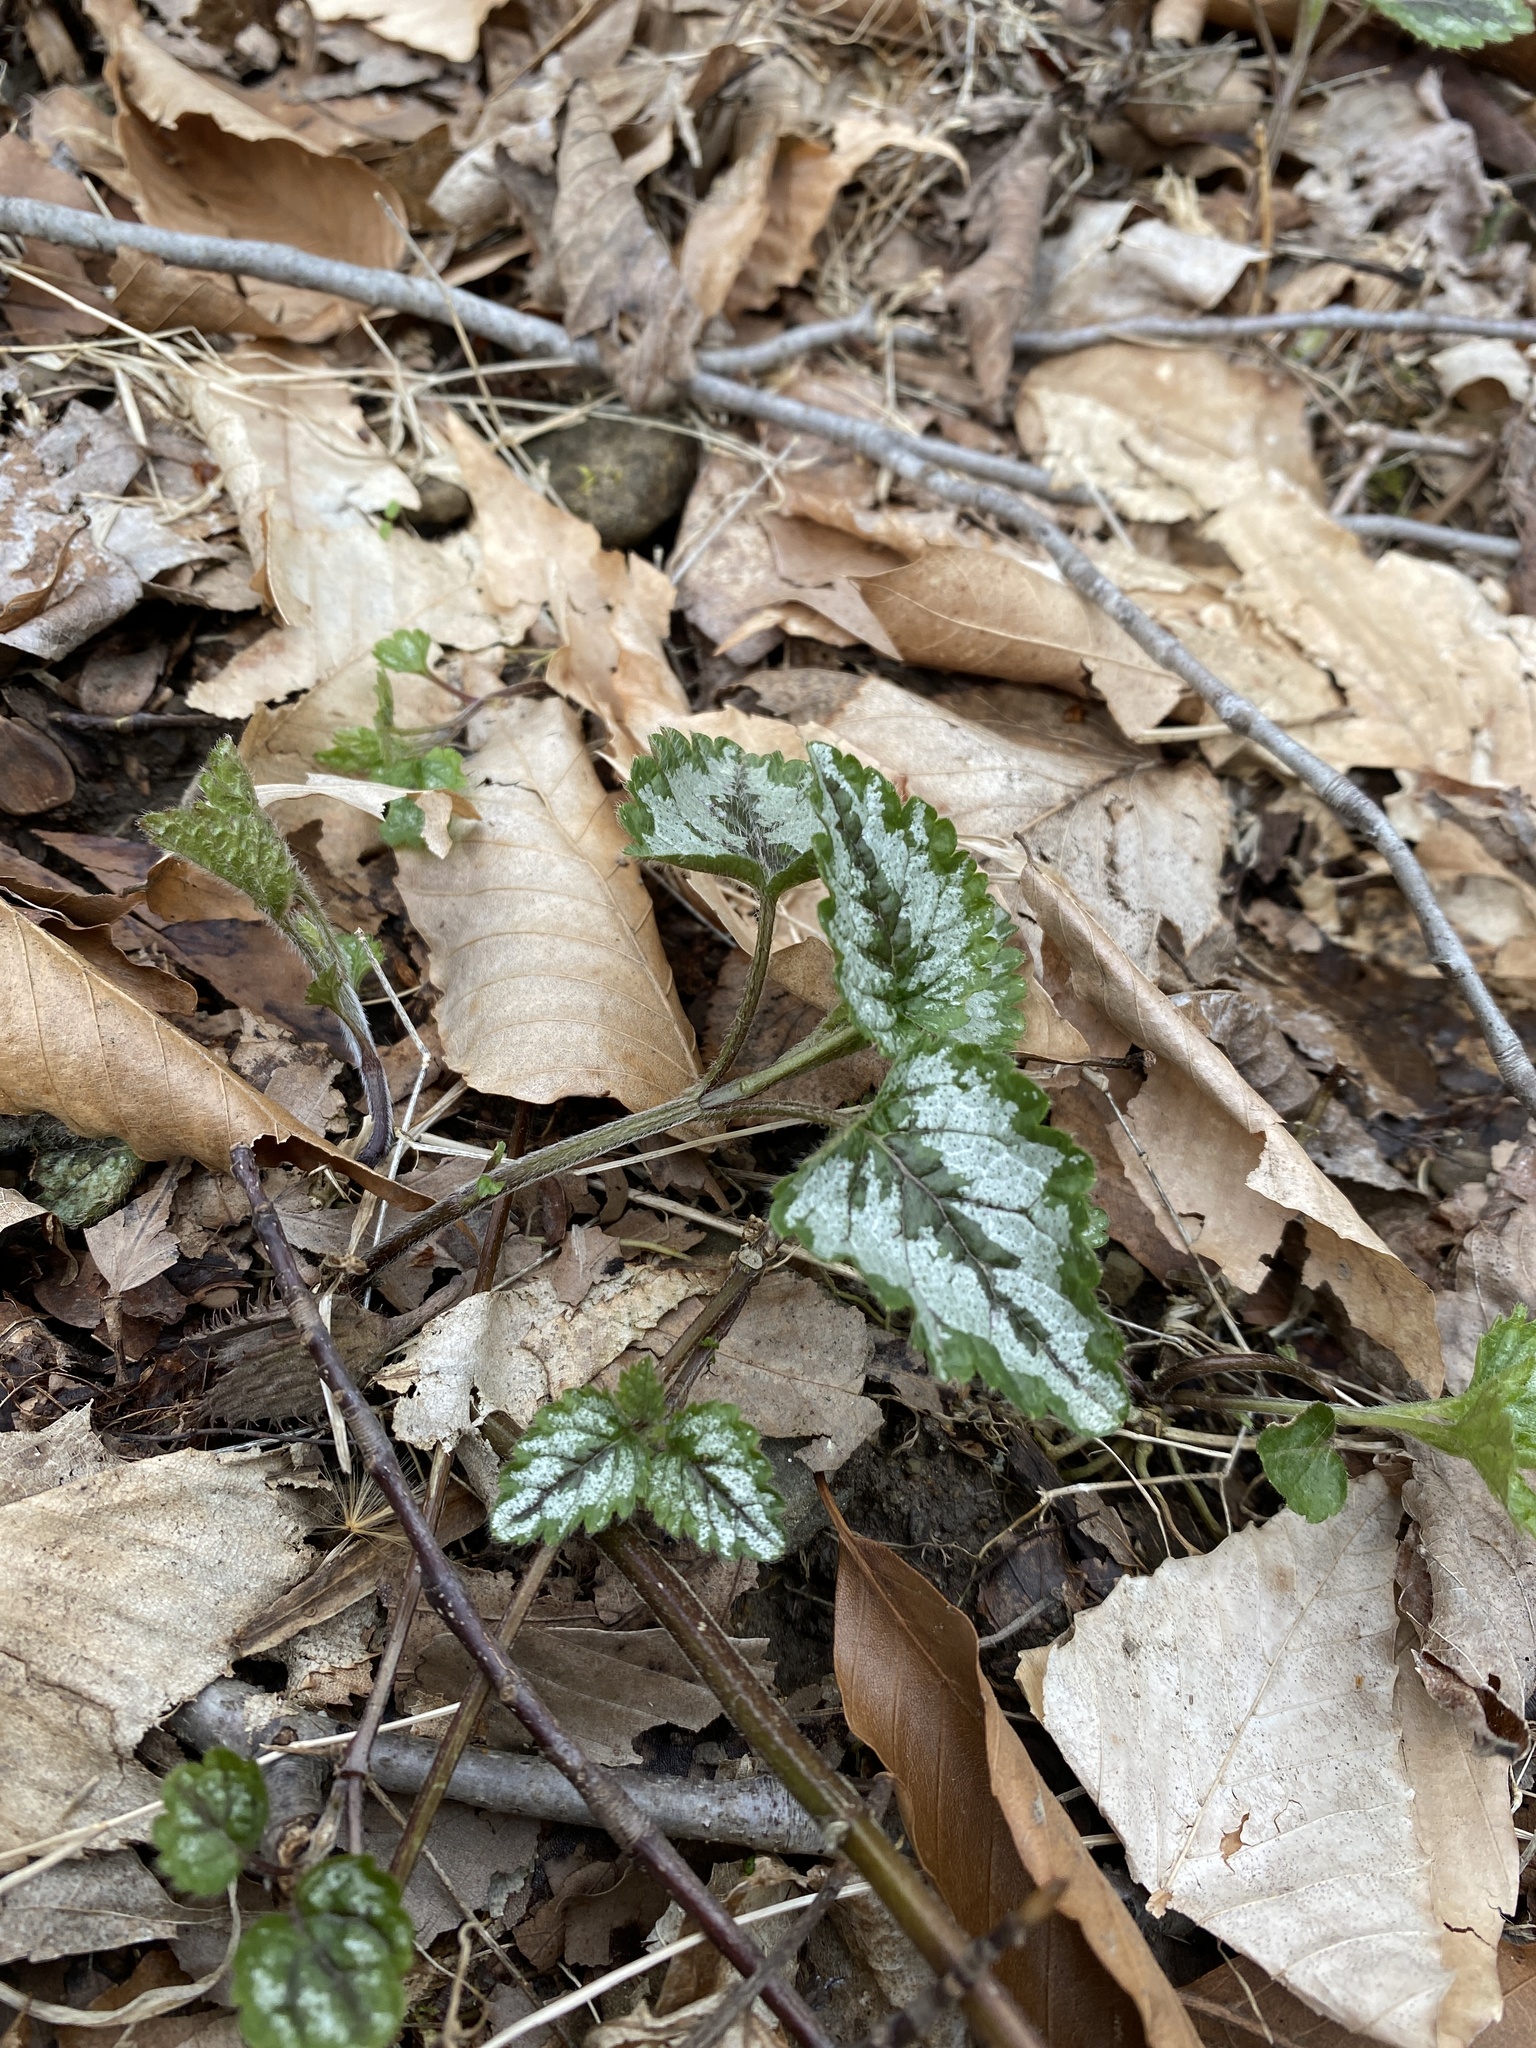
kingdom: Plantae
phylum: Tracheophyta
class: Magnoliopsida
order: Lamiales
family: Lamiaceae
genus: Lamium
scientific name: Lamium galeobdolon
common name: Yellow archangel
